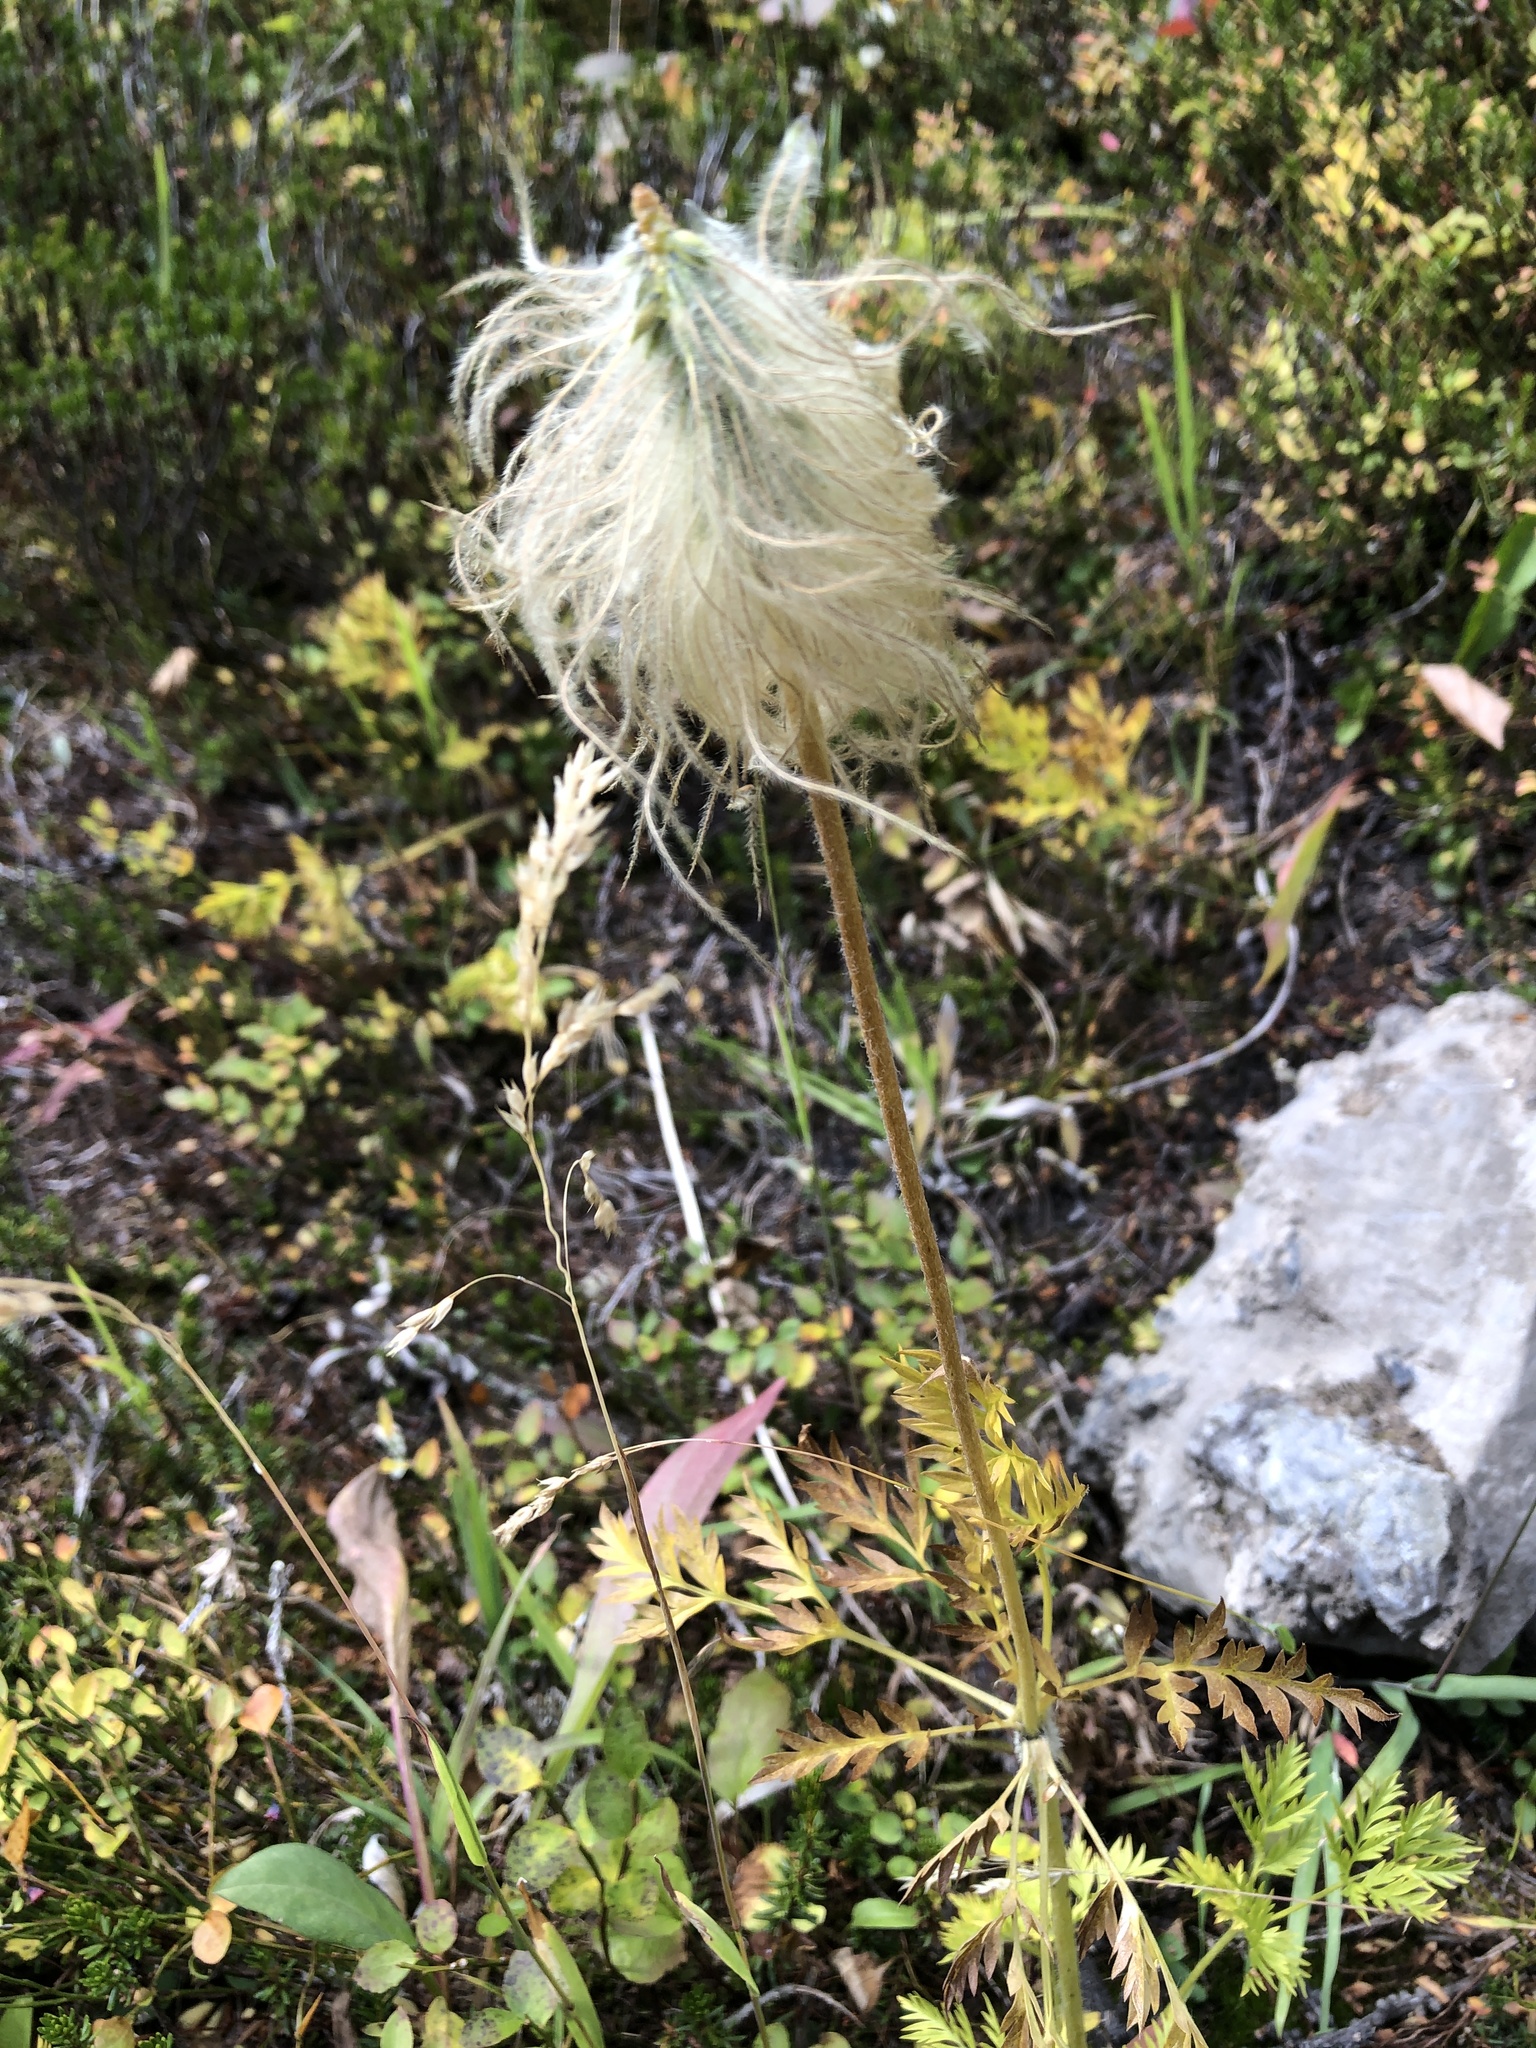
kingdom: Plantae
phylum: Tracheophyta
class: Magnoliopsida
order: Ranunculales
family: Ranunculaceae
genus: Pulsatilla
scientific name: Pulsatilla occidentalis
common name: Mountain pasqueflower
